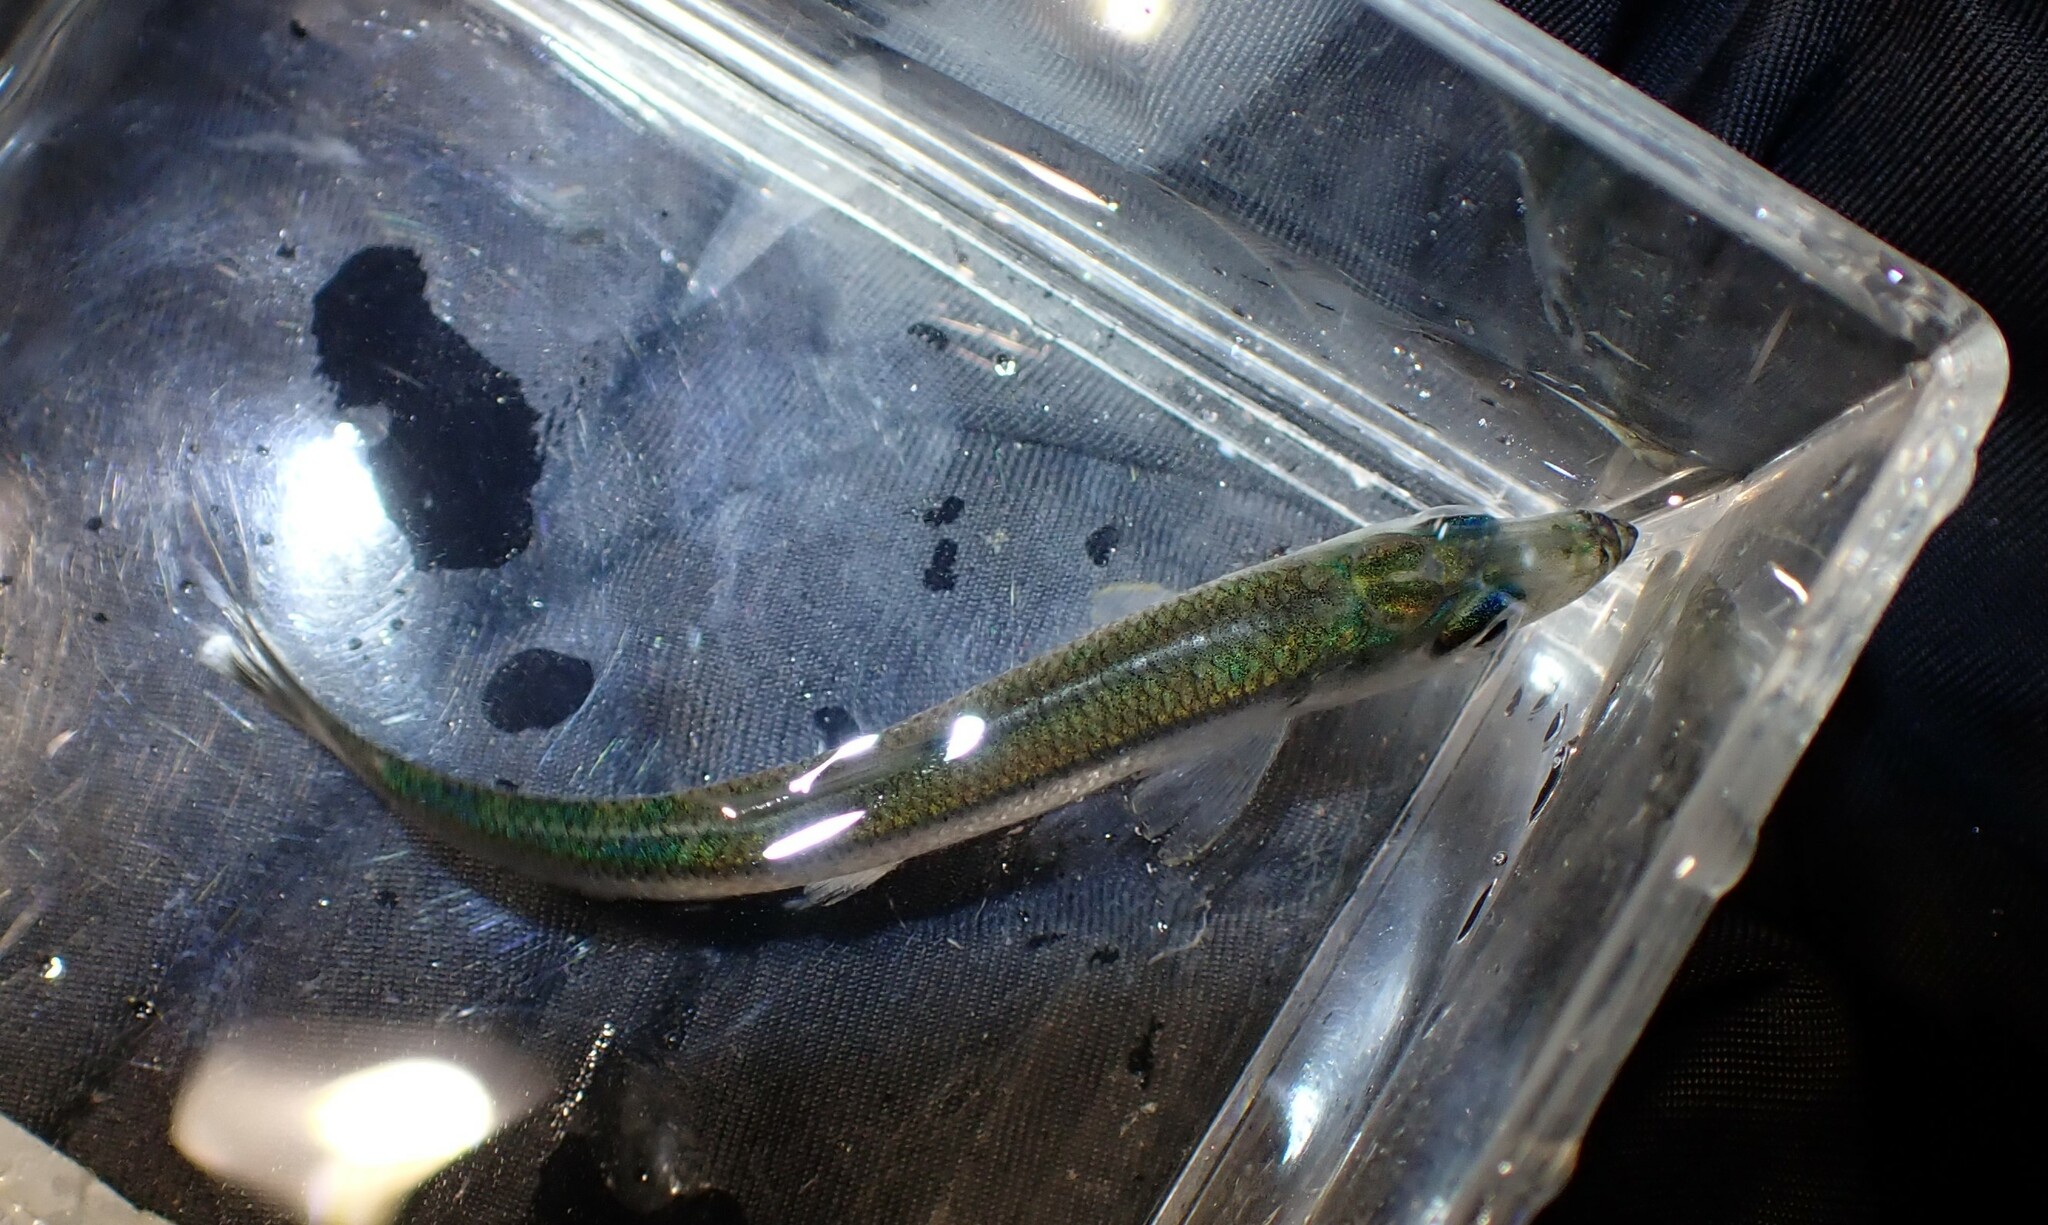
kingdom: Animalia
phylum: Chordata
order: Clupeiformes
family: Clupeidae
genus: Clupea
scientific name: Clupea pallasii
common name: Pacific herring
